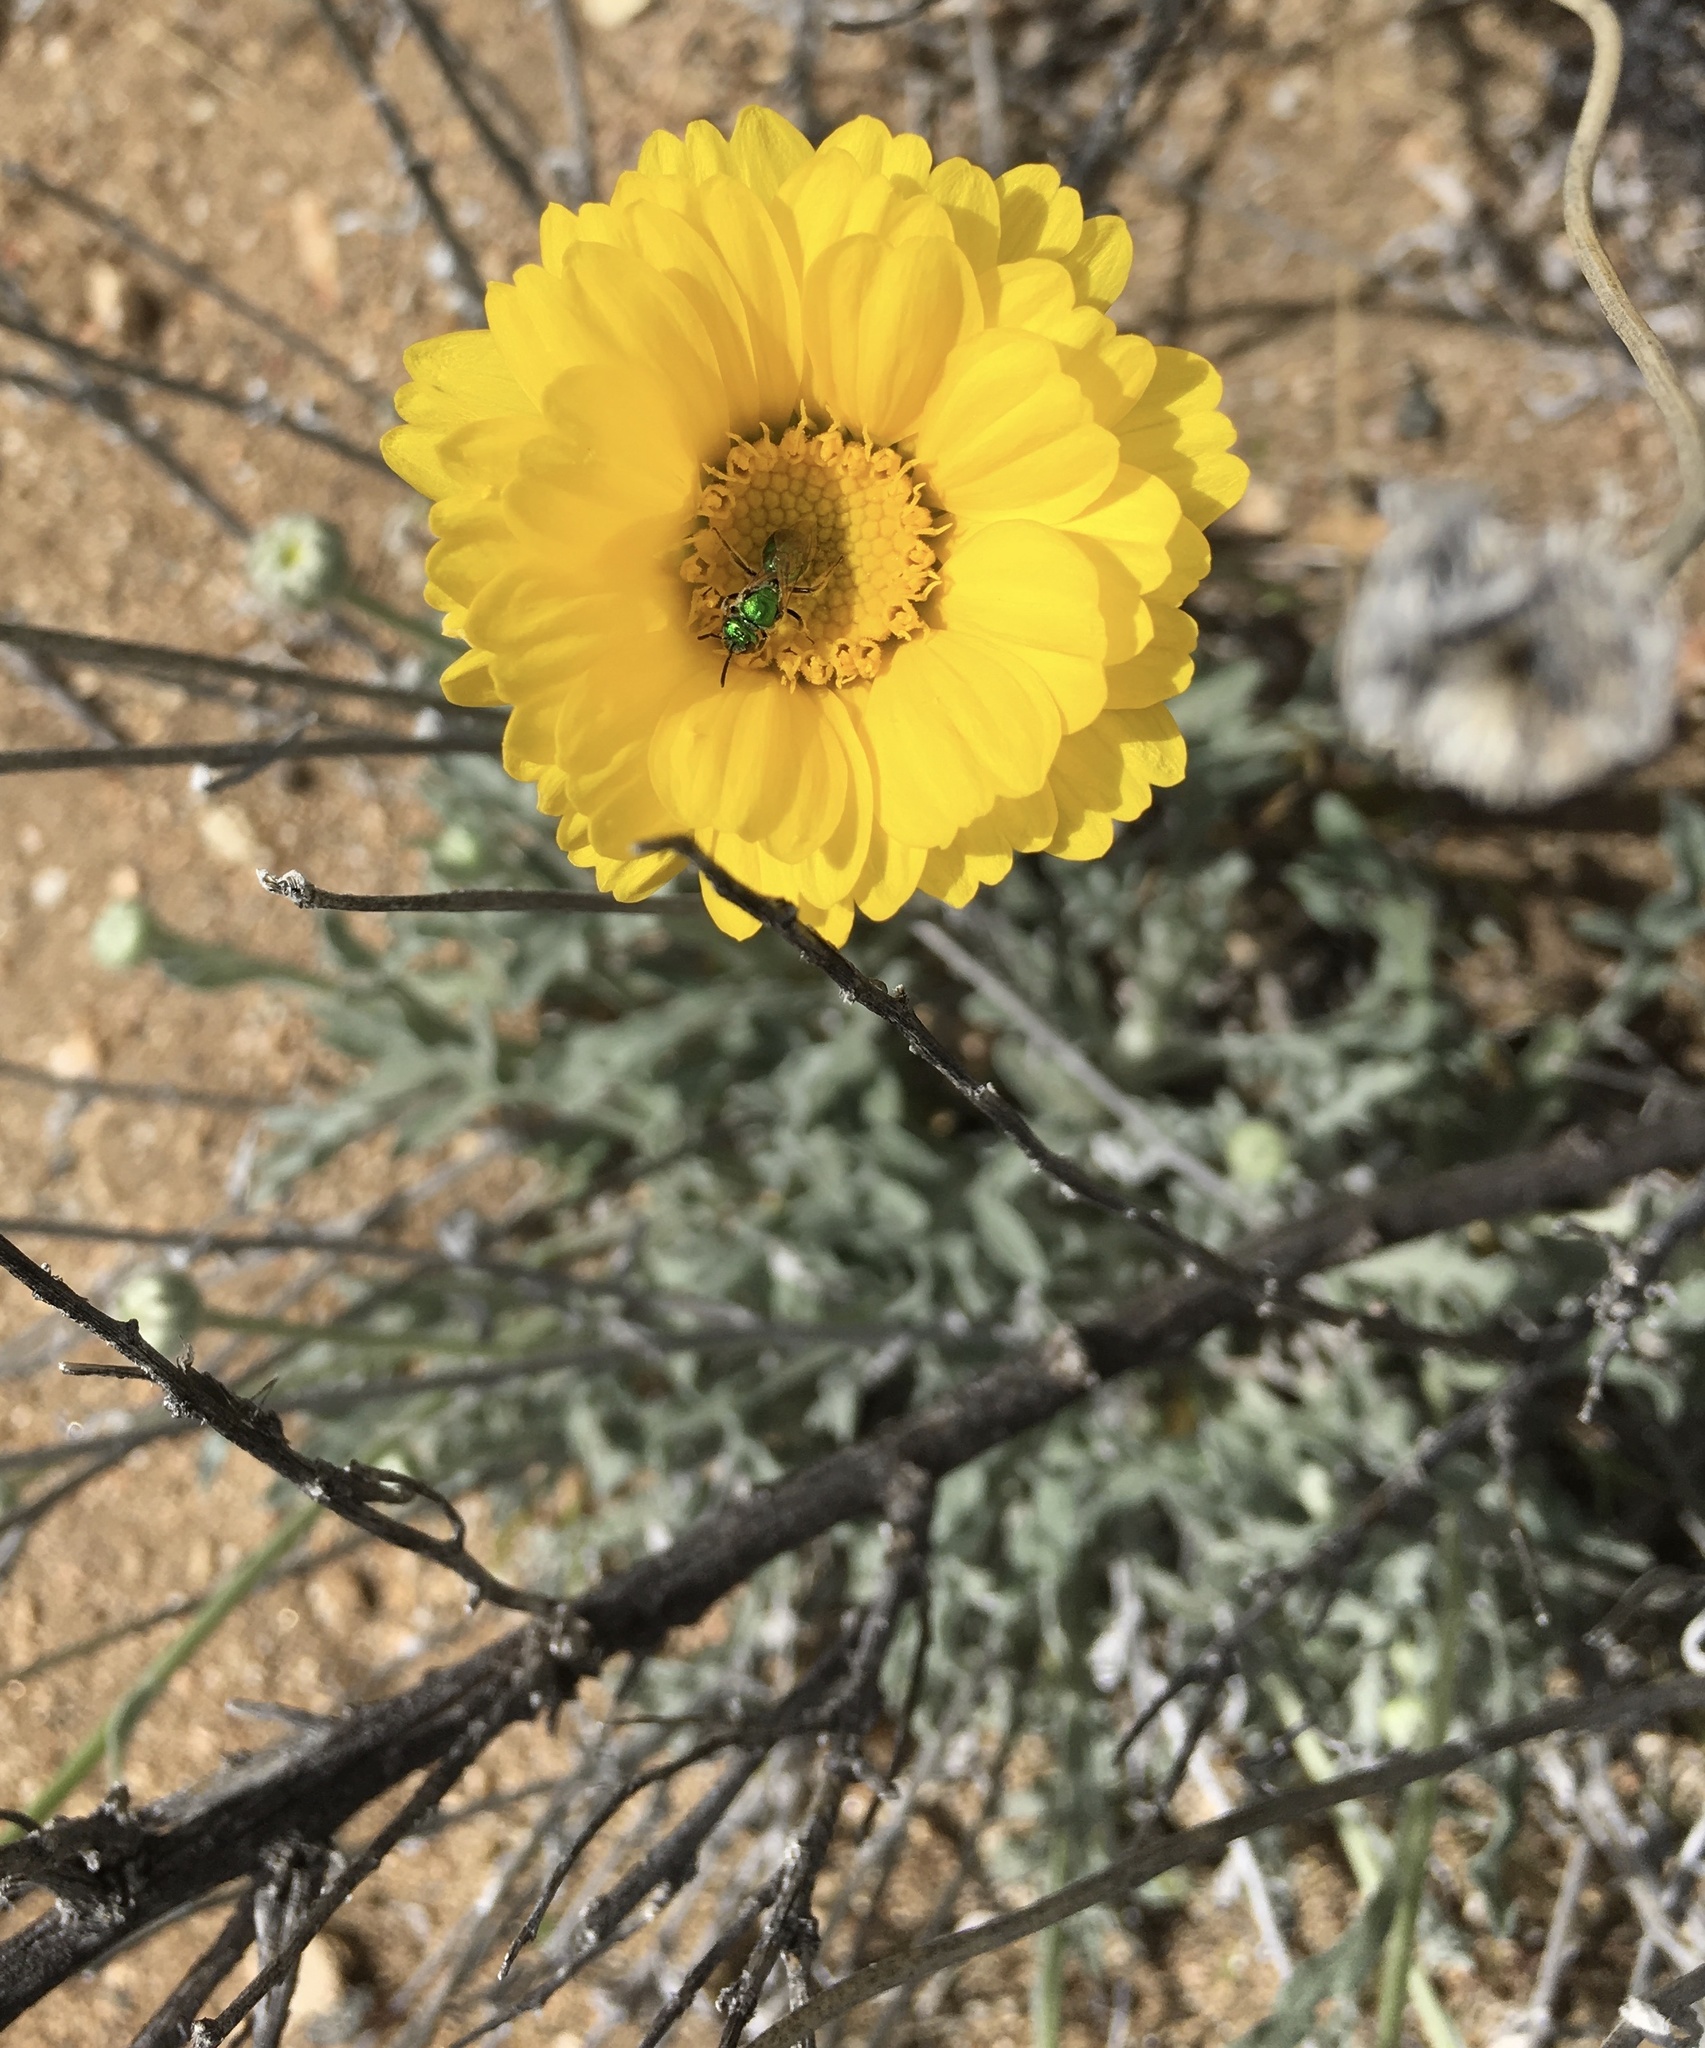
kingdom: Plantae
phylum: Tracheophyta
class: Magnoliopsida
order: Asterales
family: Asteraceae
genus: Baileya
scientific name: Baileya multiradiata
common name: Desert-marigold
